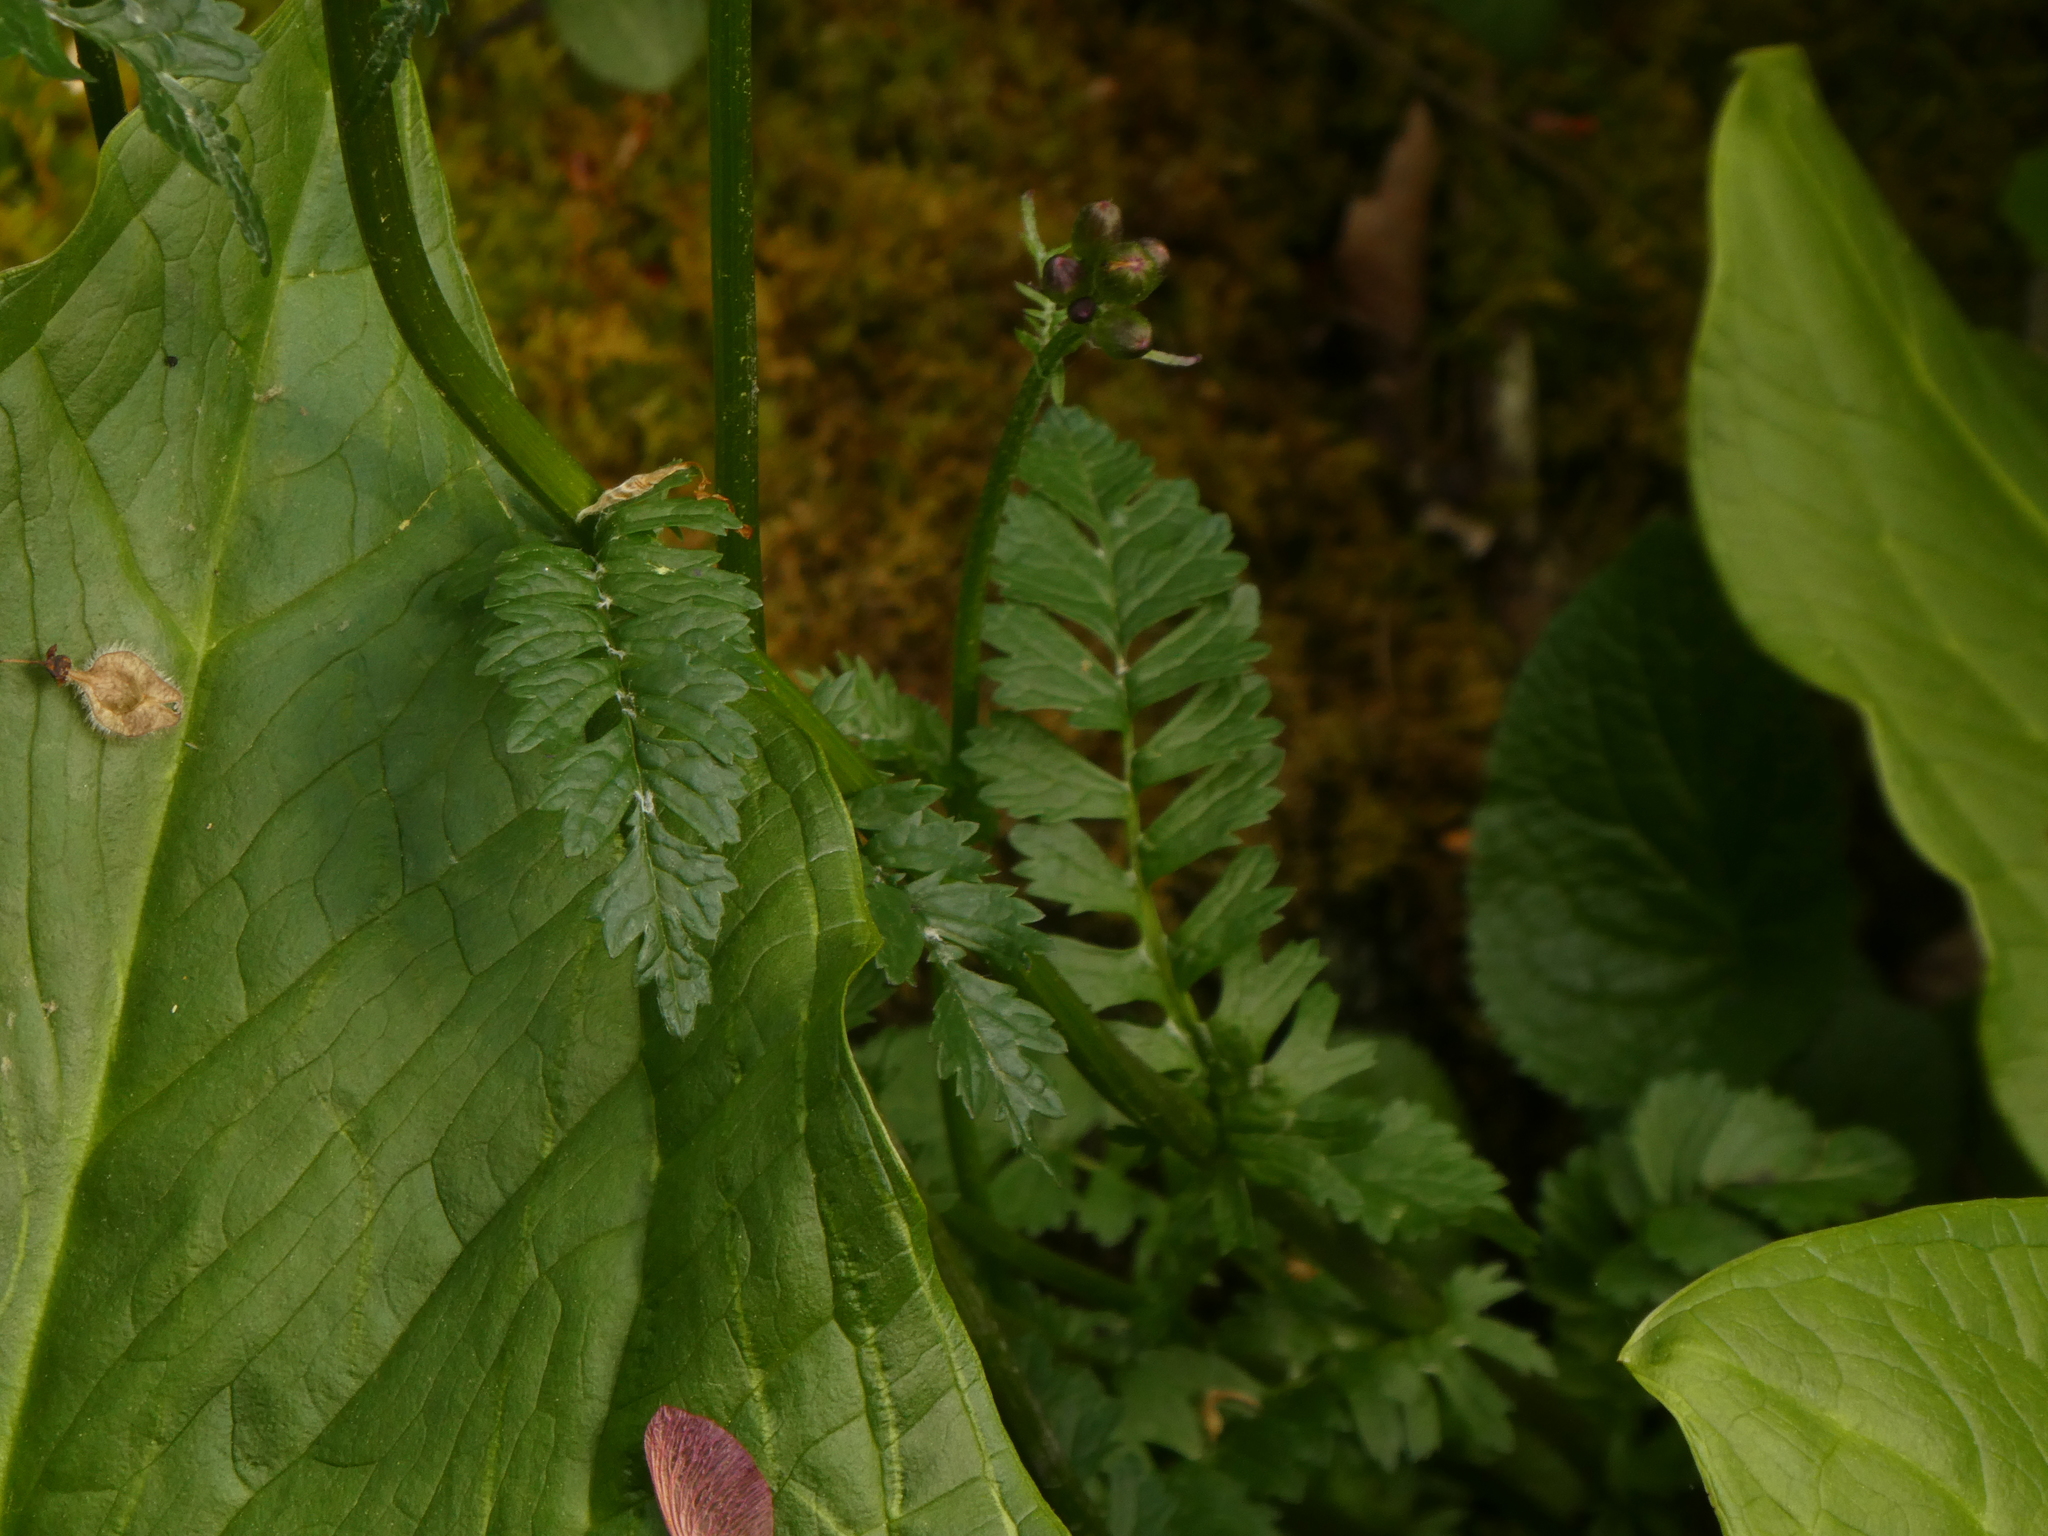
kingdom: Plantae
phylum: Tracheophyta
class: Magnoliopsida
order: Asterales
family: Asteraceae
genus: Packera
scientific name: Packera aurea
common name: Golden groundsel
